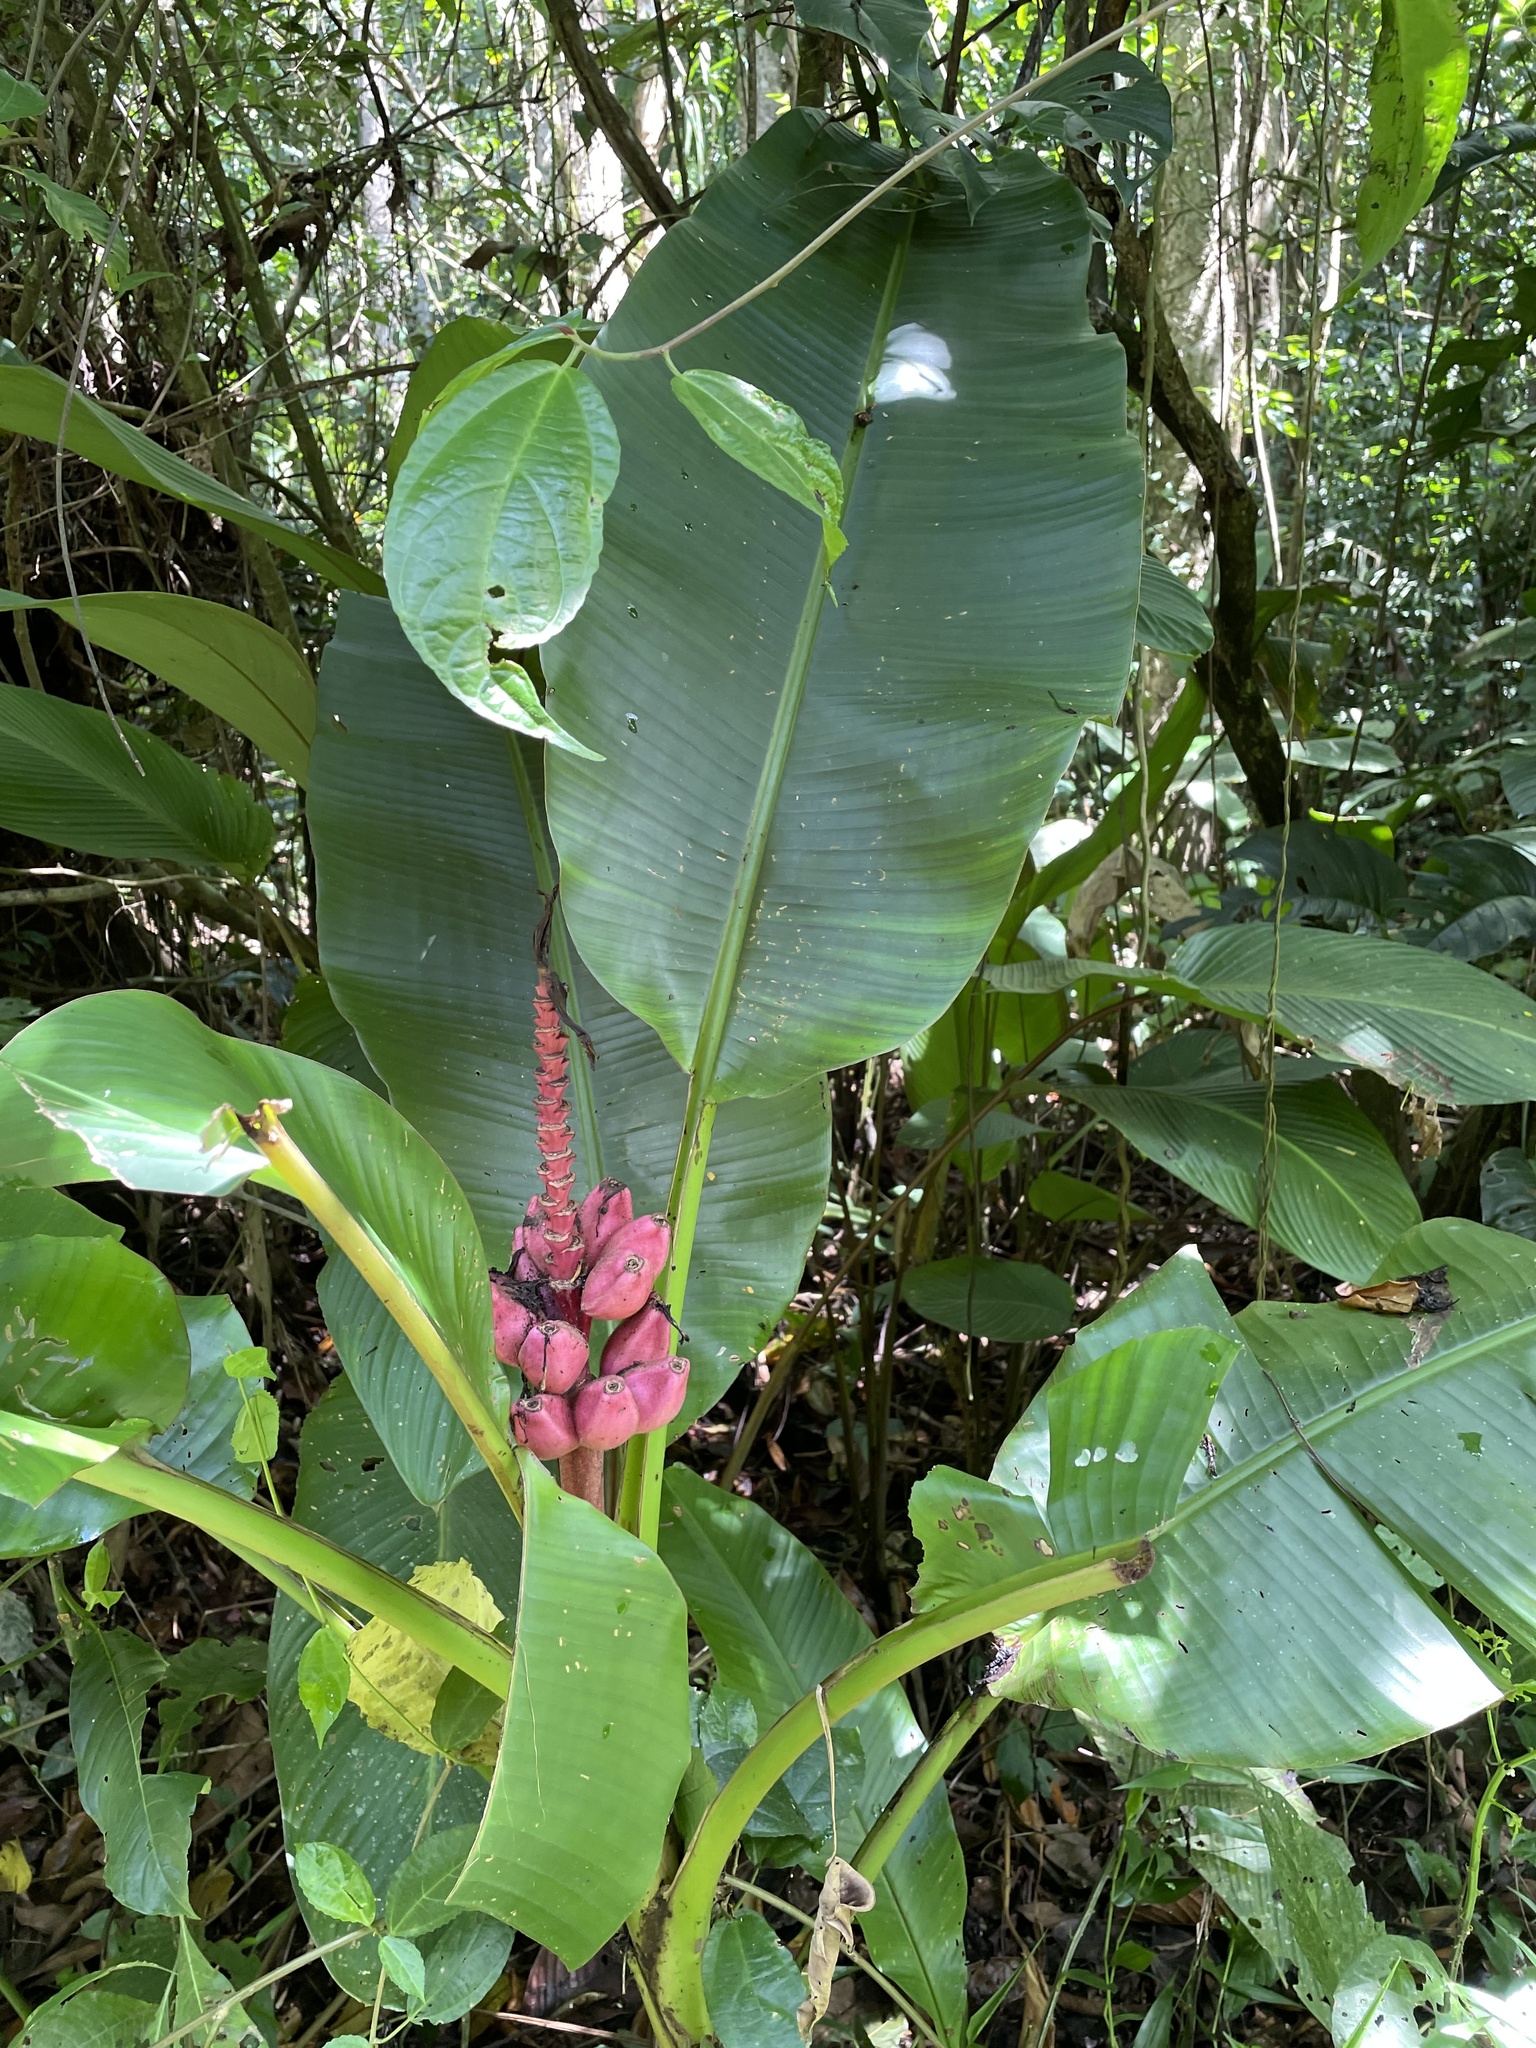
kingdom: Plantae
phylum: Tracheophyta
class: Liliopsida
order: Zingiberales
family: Musaceae
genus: Musa
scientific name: Musa velutina
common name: Pink velvet banana
